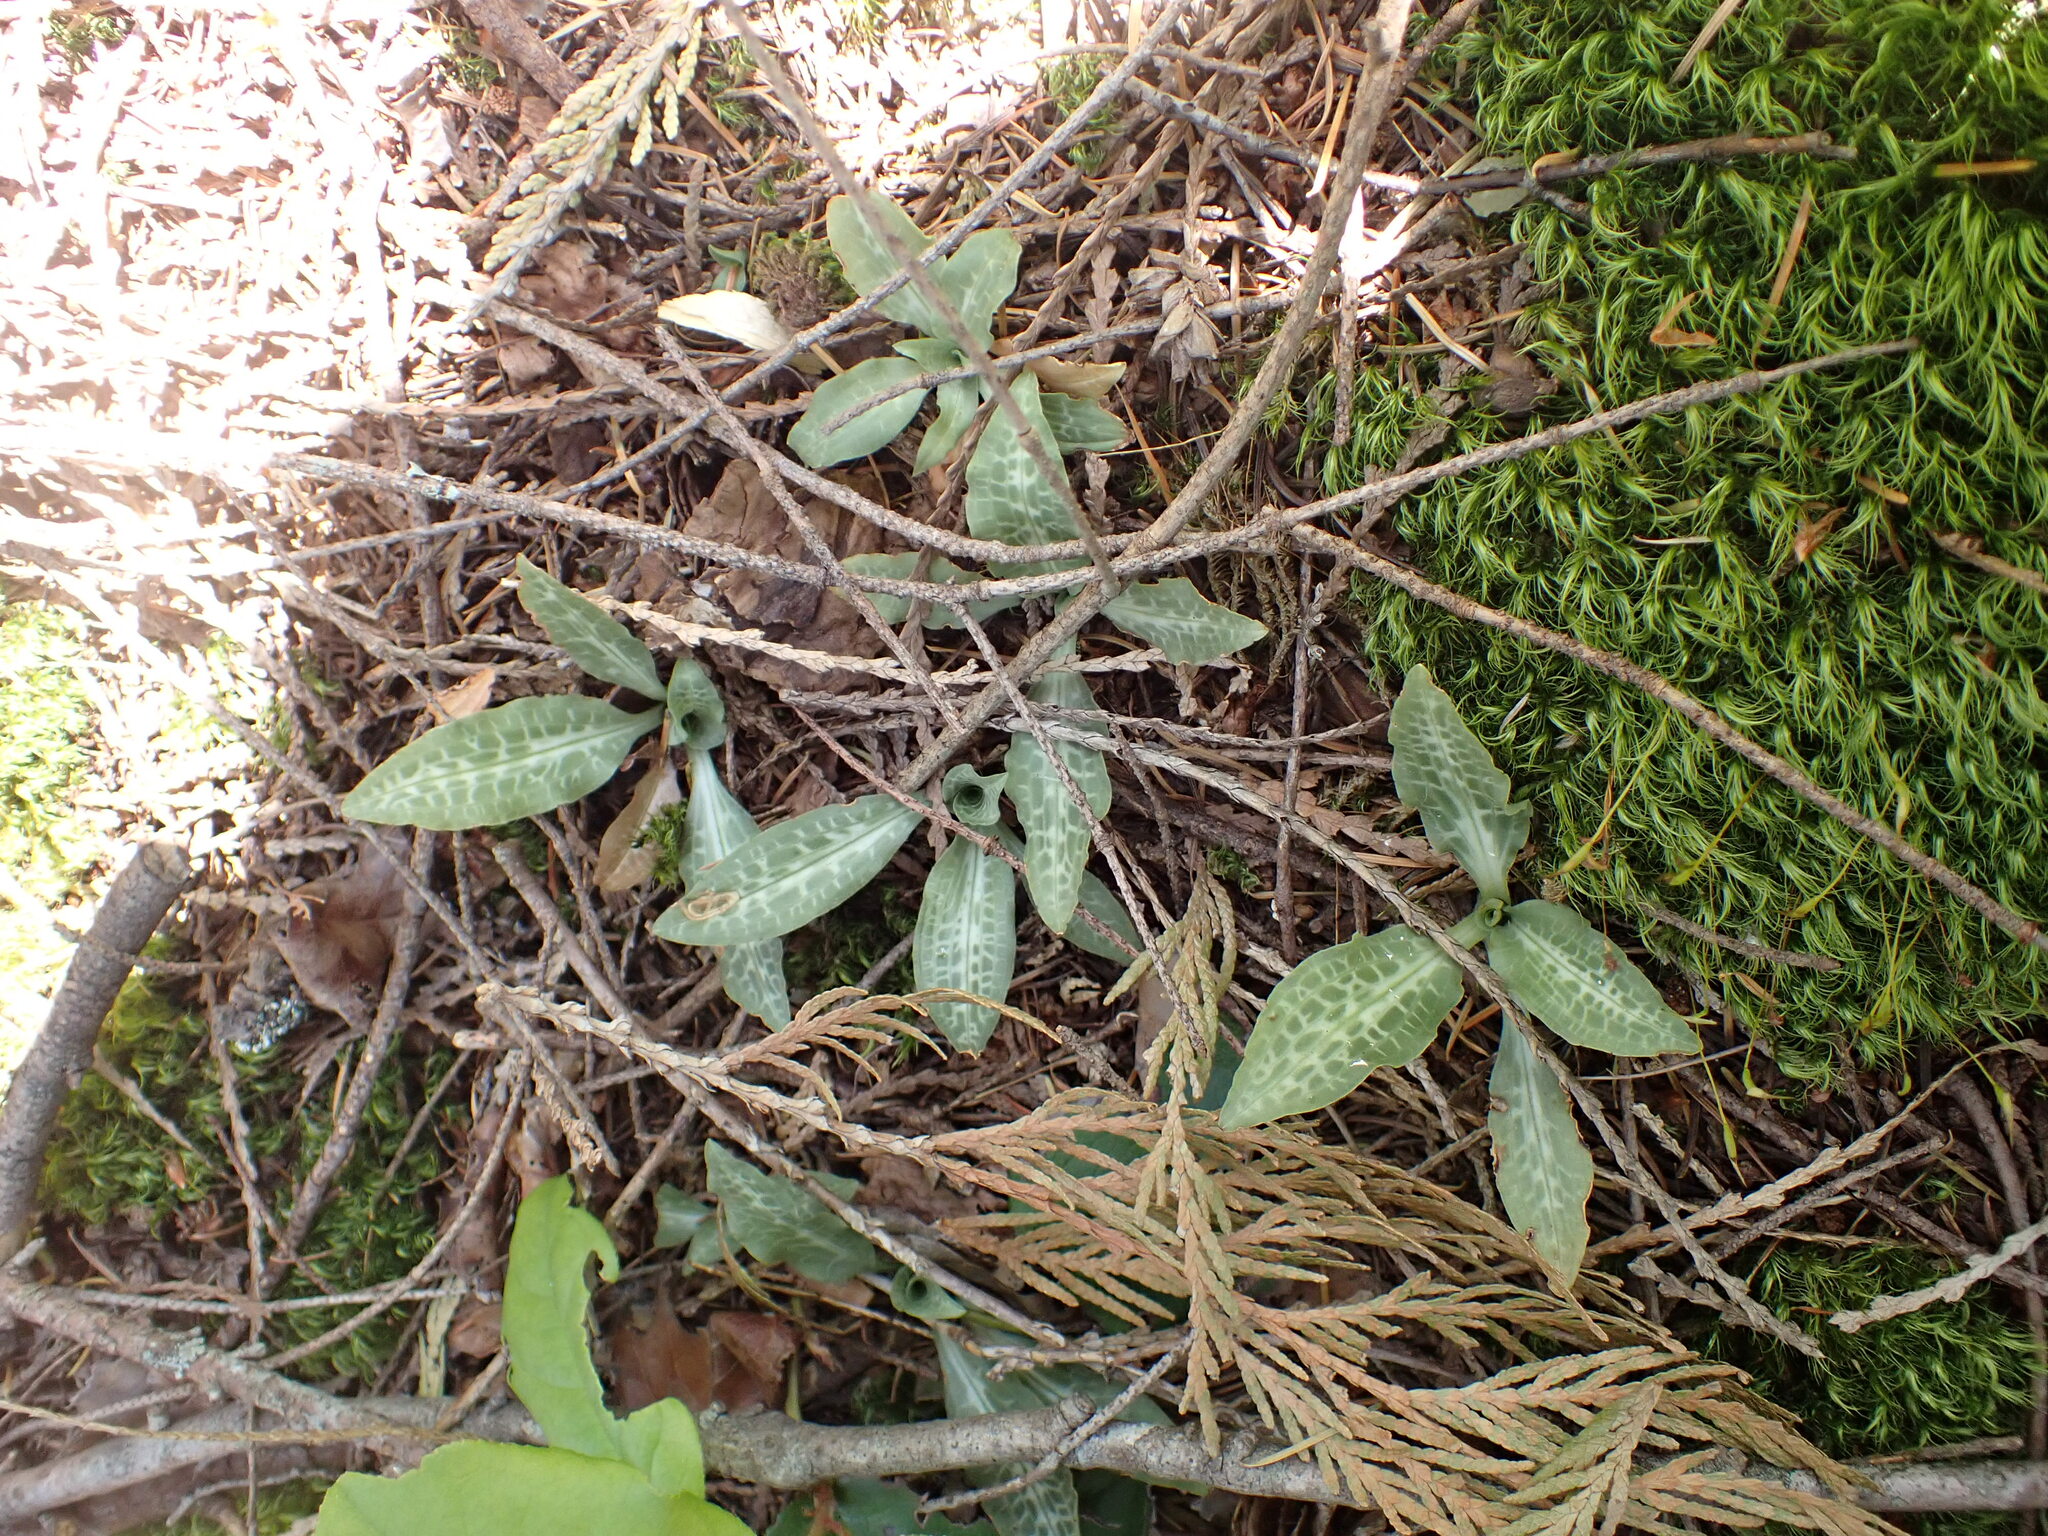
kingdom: Plantae
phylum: Tracheophyta
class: Liliopsida
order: Asparagales
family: Orchidaceae
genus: Goodyera
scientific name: Goodyera oblongifolia
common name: Giant rattlesnake-plantain
